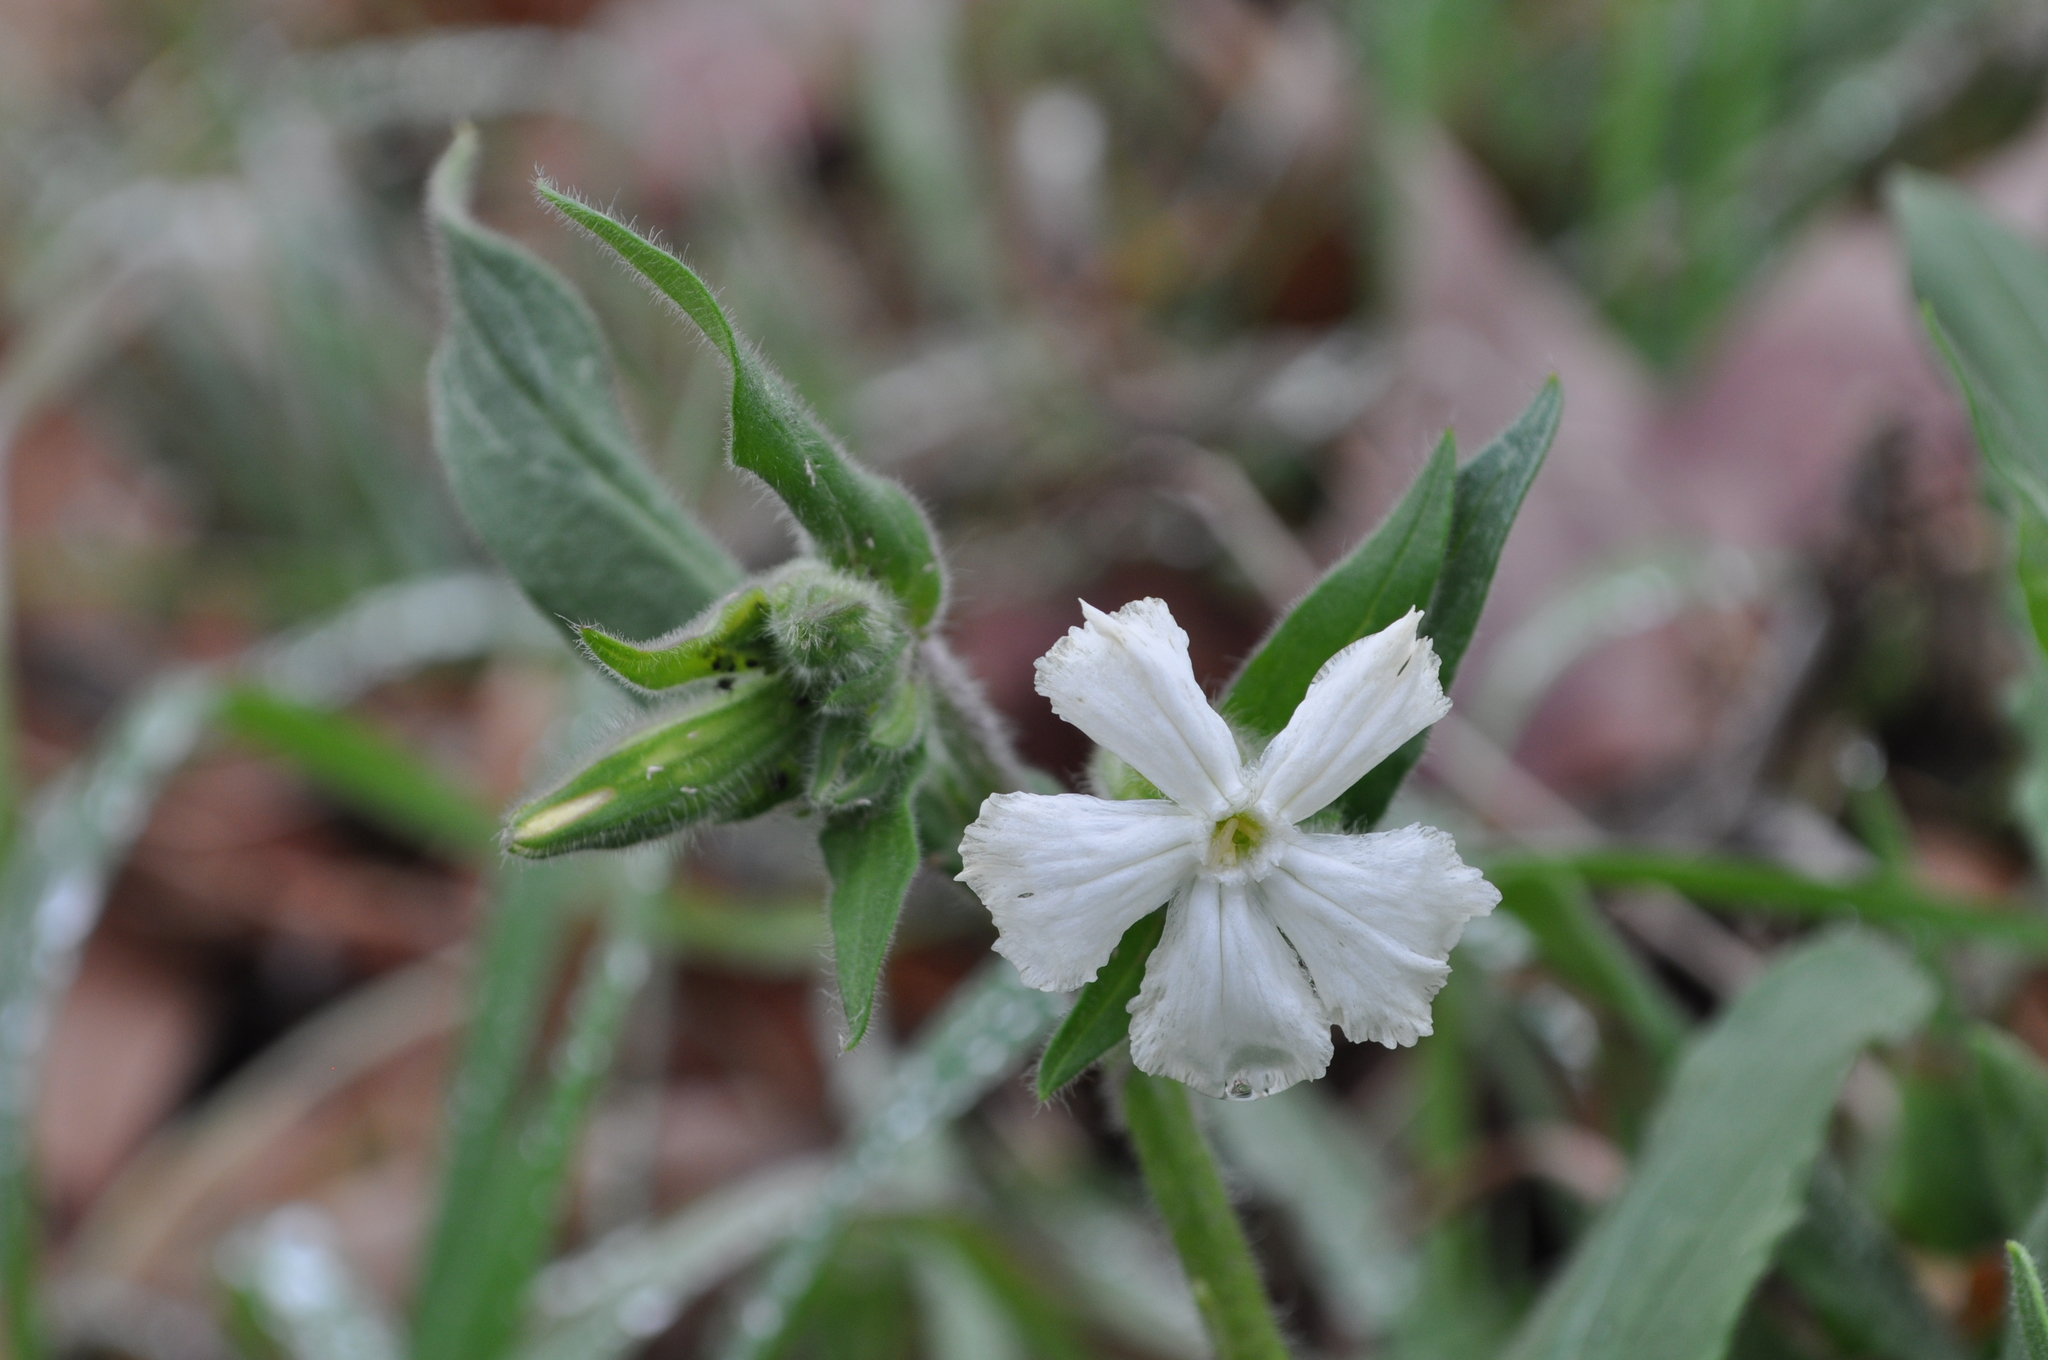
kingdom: Plantae
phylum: Tracheophyta
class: Magnoliopsida
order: Caryophyllales
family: Caryophyllaceae
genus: Silene
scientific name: Silene latifolia
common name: White campion
